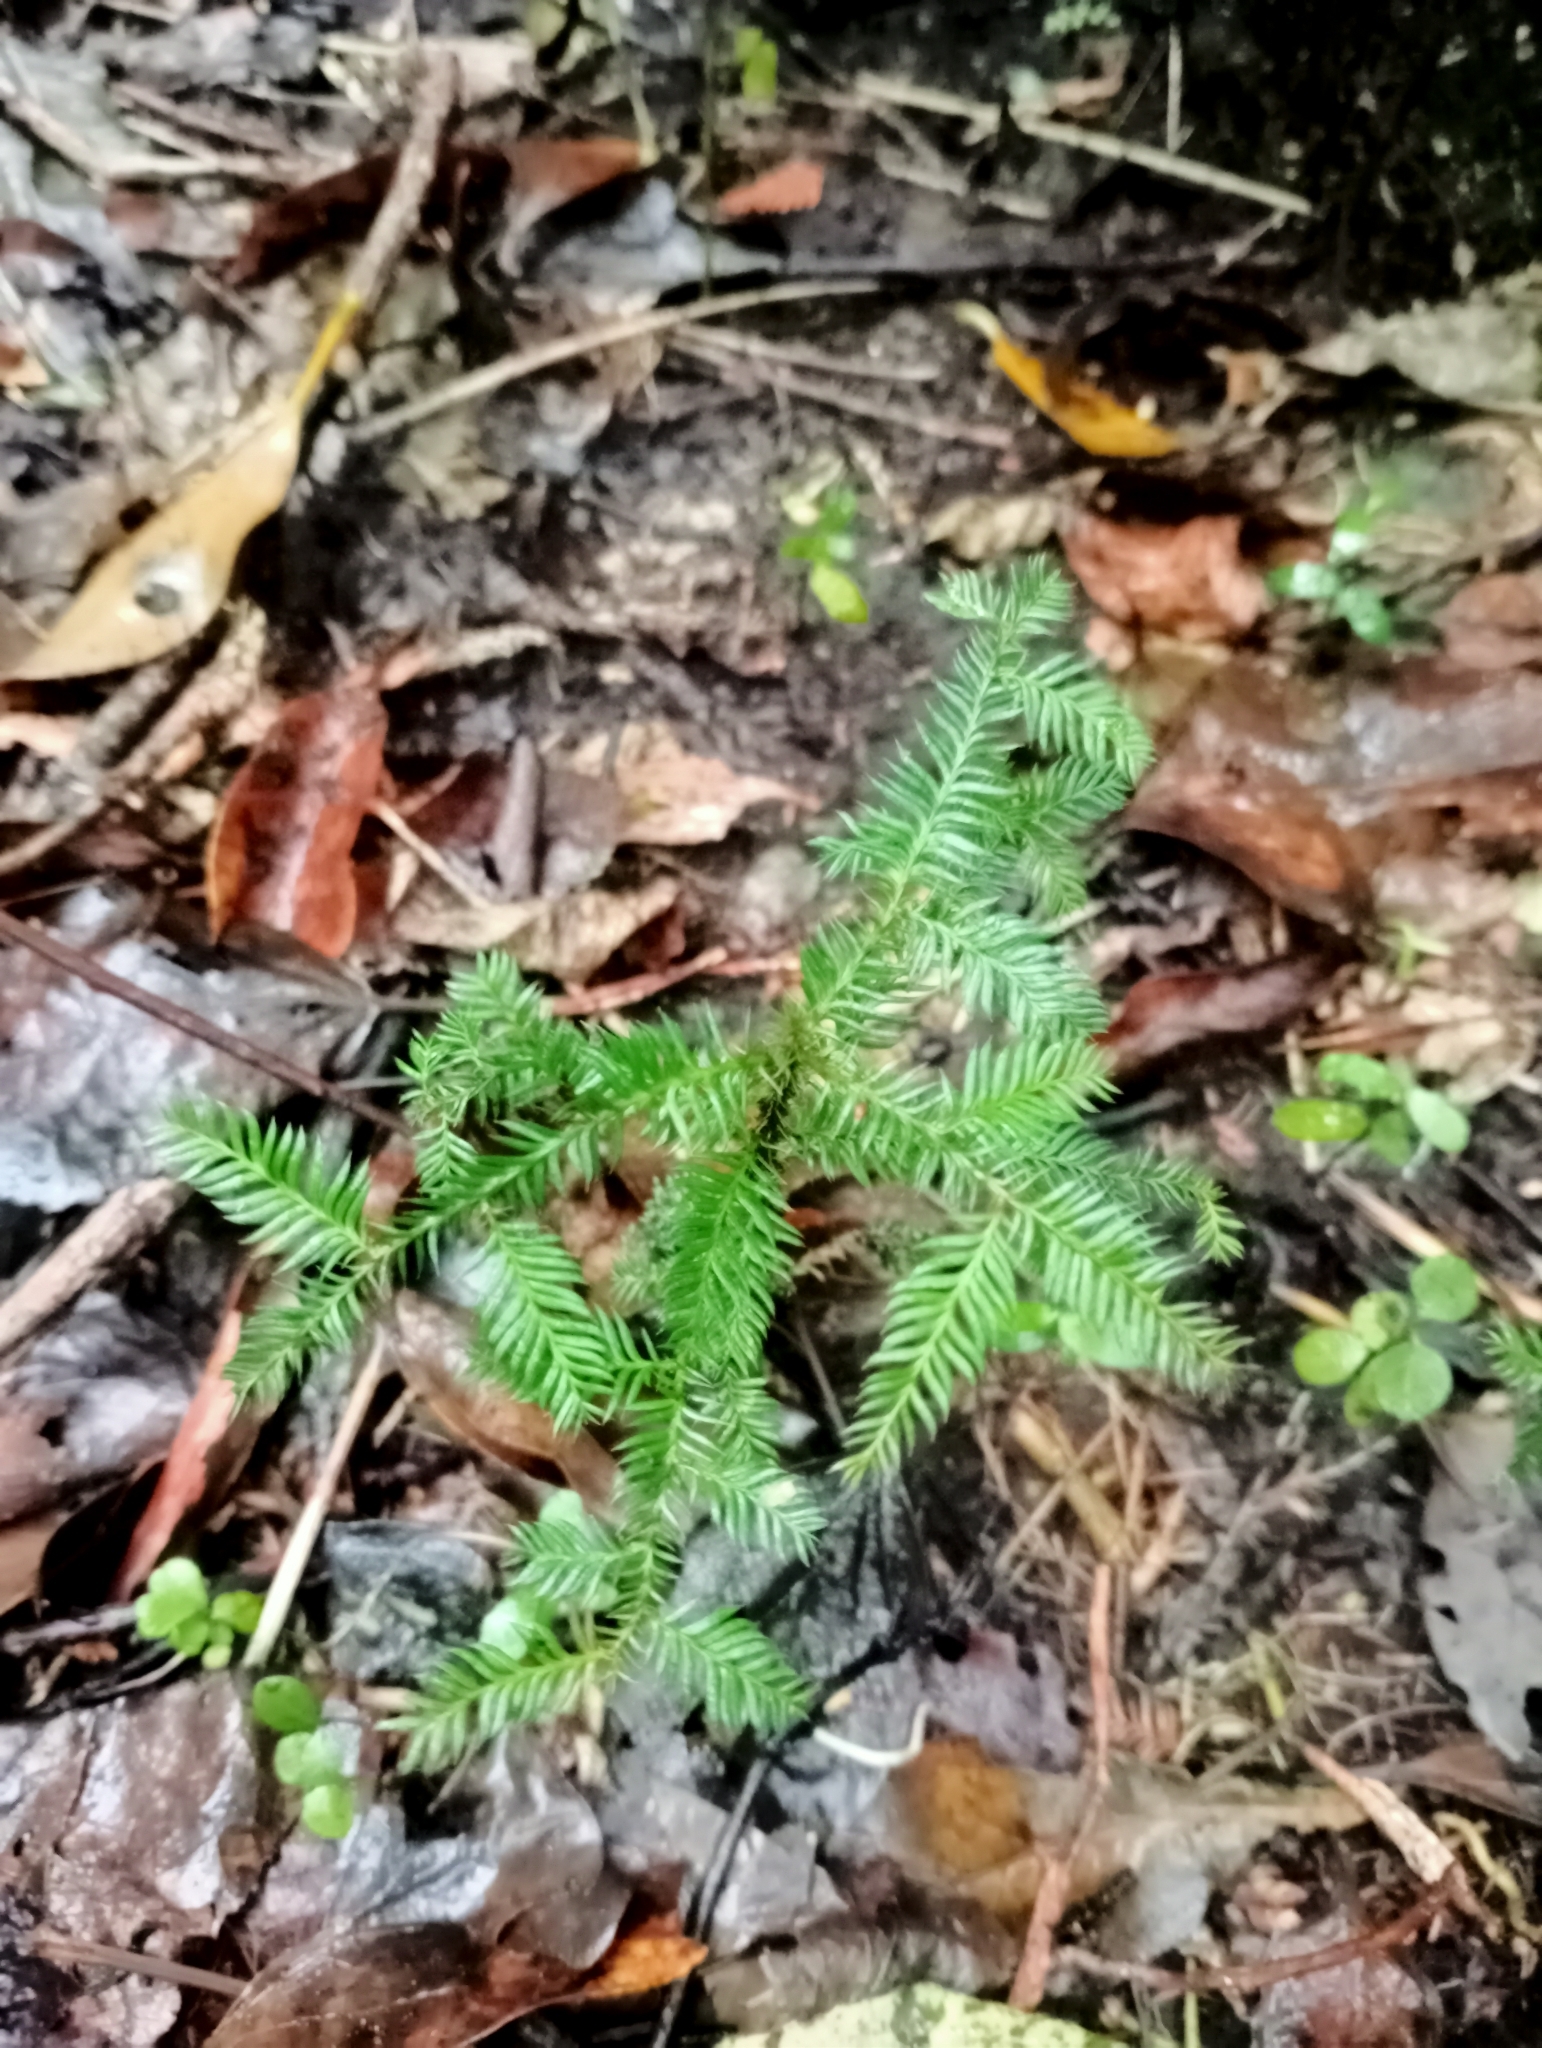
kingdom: Plantae
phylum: Tracheophyta
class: Pinopsida
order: Pinales
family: Podocarpaceae
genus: Dacrycarpus
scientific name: Dacrycarpus dacrydioides
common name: White pine
